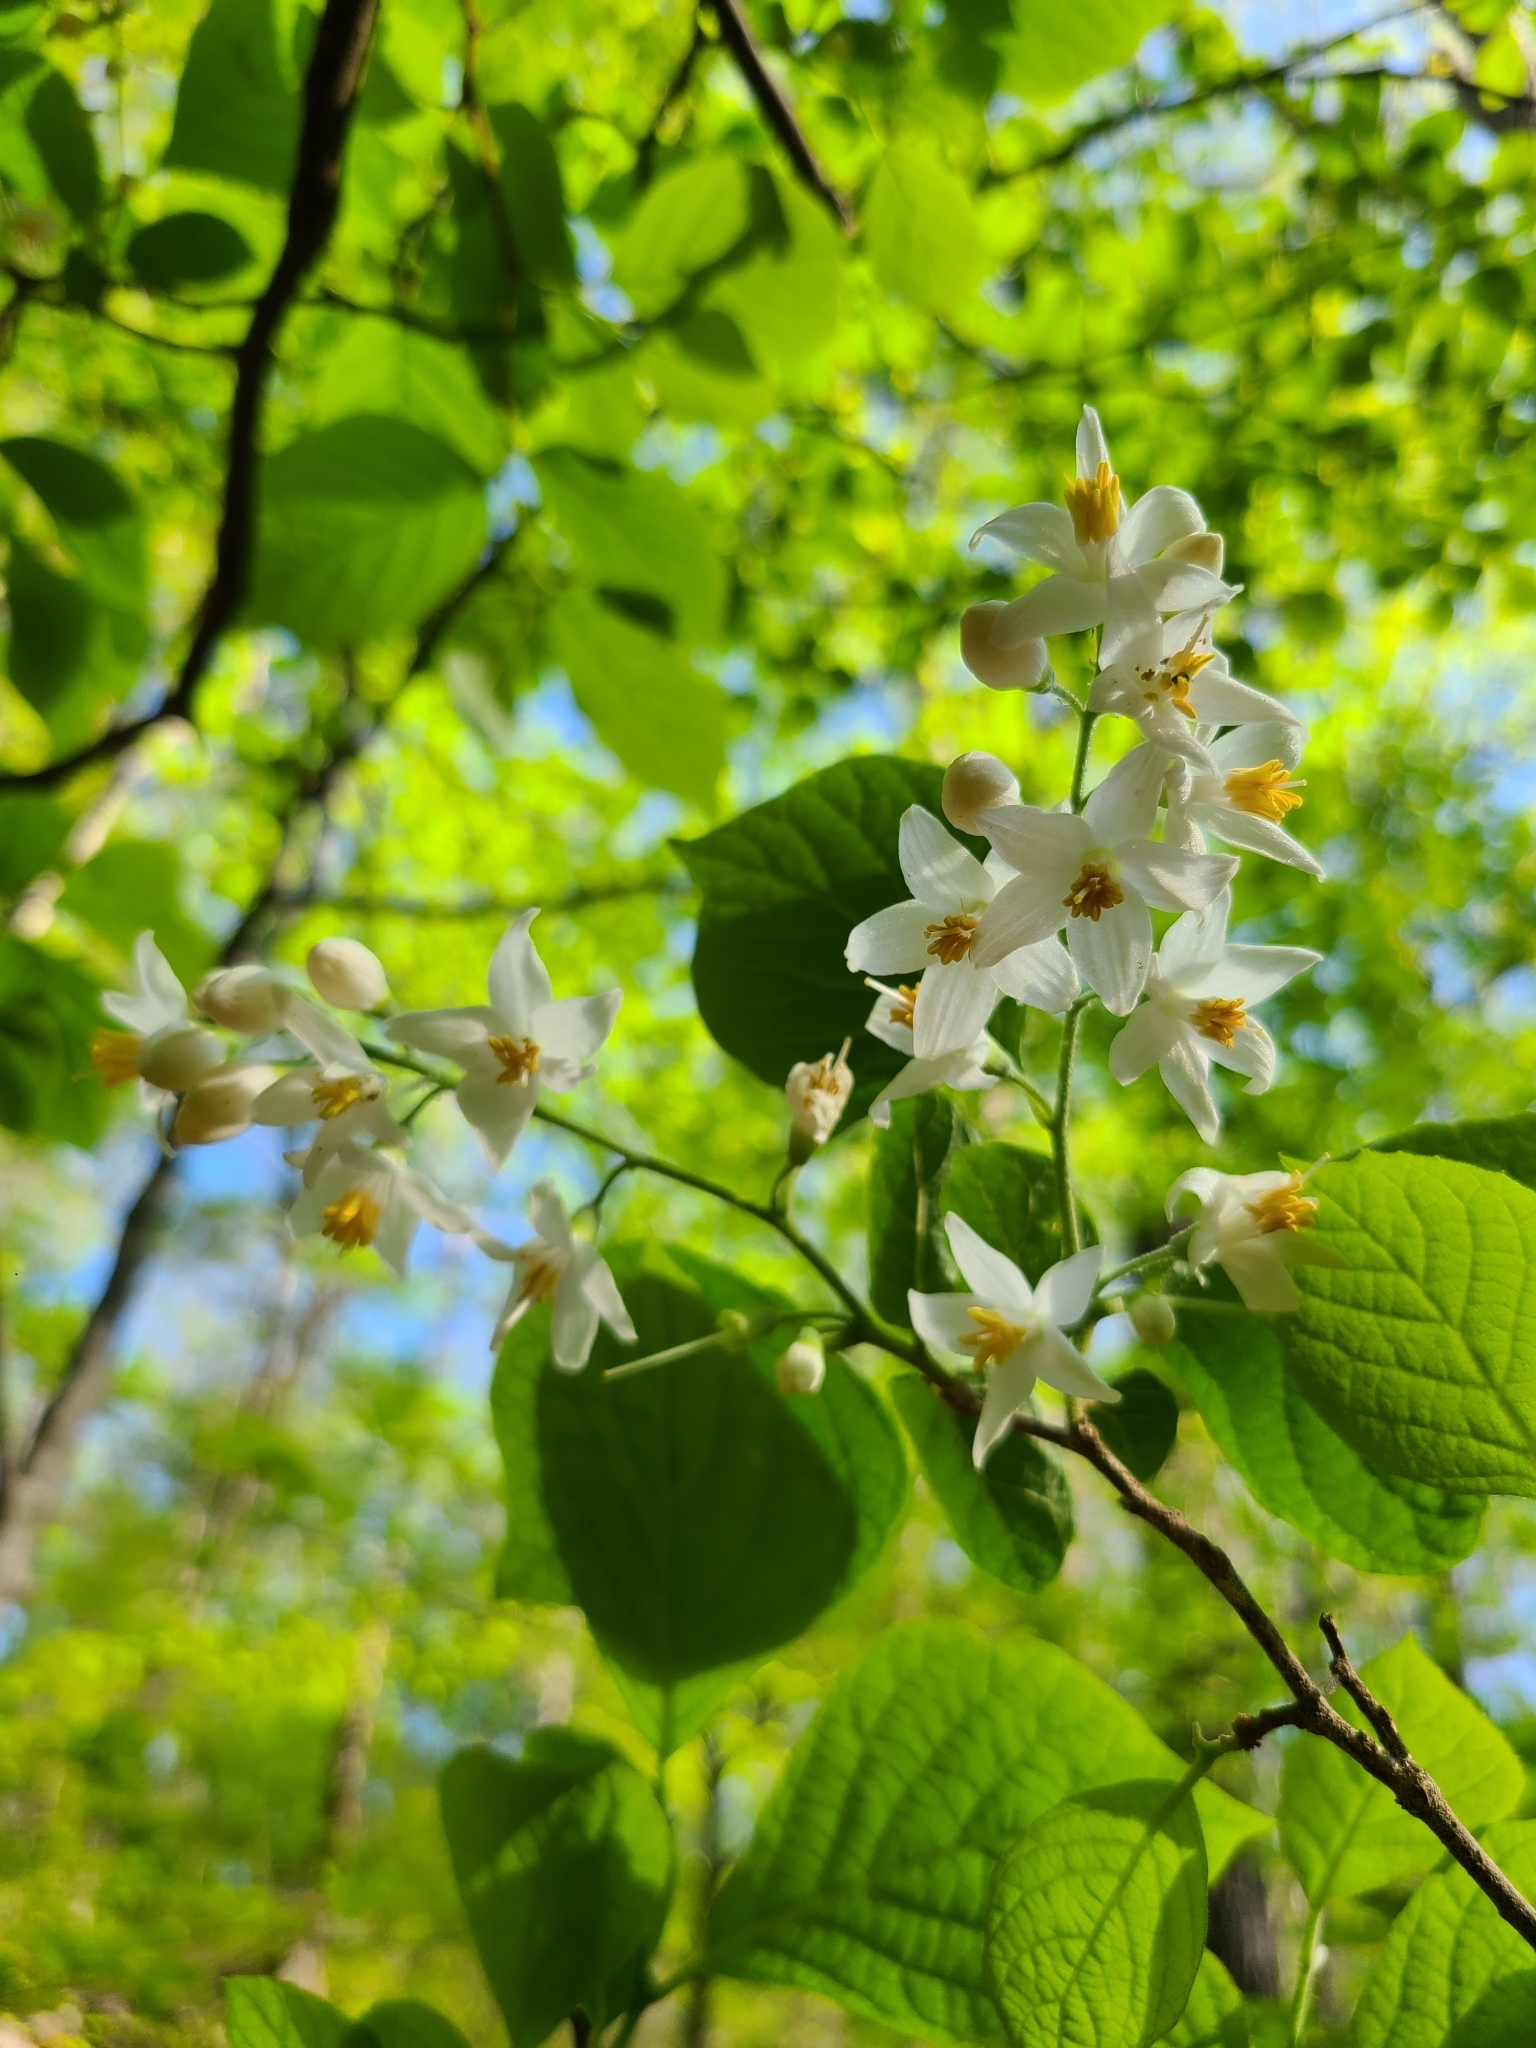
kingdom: Plantae
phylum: Tracheophyta
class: Magnoliopsida
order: Ericales
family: Styracaceae
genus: Styrax
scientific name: Styrax grandifolius
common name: Big-leaf snowbell
